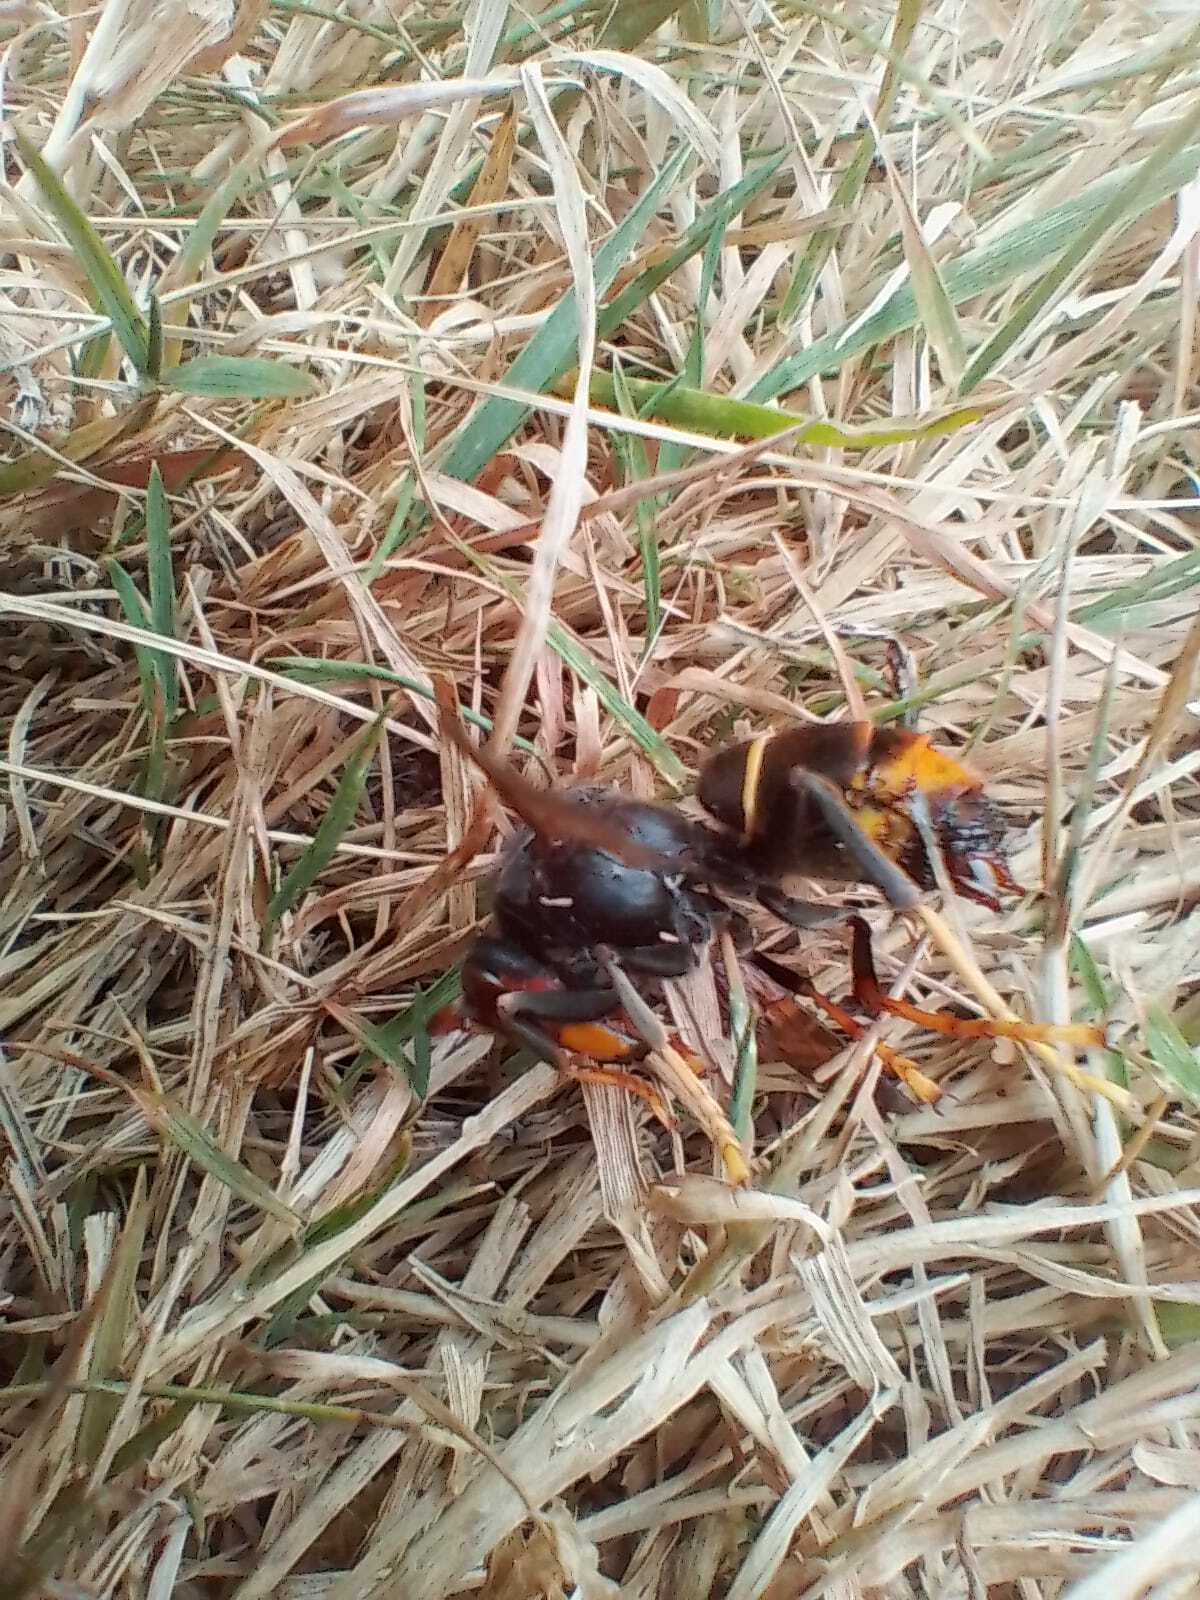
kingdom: Animalia
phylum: Arthropoda
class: Insecta
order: Hymenoptera
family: Vespidae
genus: Vespa
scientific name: Vespa velutina
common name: Asian hornet
